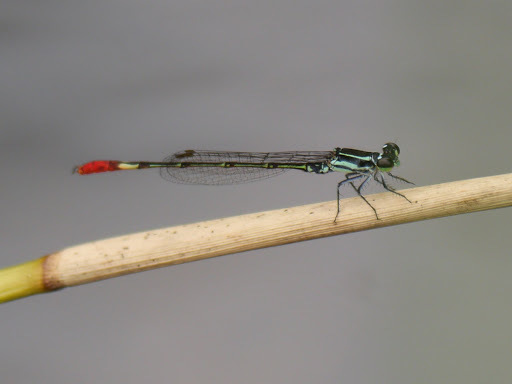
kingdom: Animalia
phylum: Arthropoda
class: Insecta
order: Odonata
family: Coenagrionidae
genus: Agriocnemis
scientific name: Agriocnemis forcipata
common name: Forceps wisp
